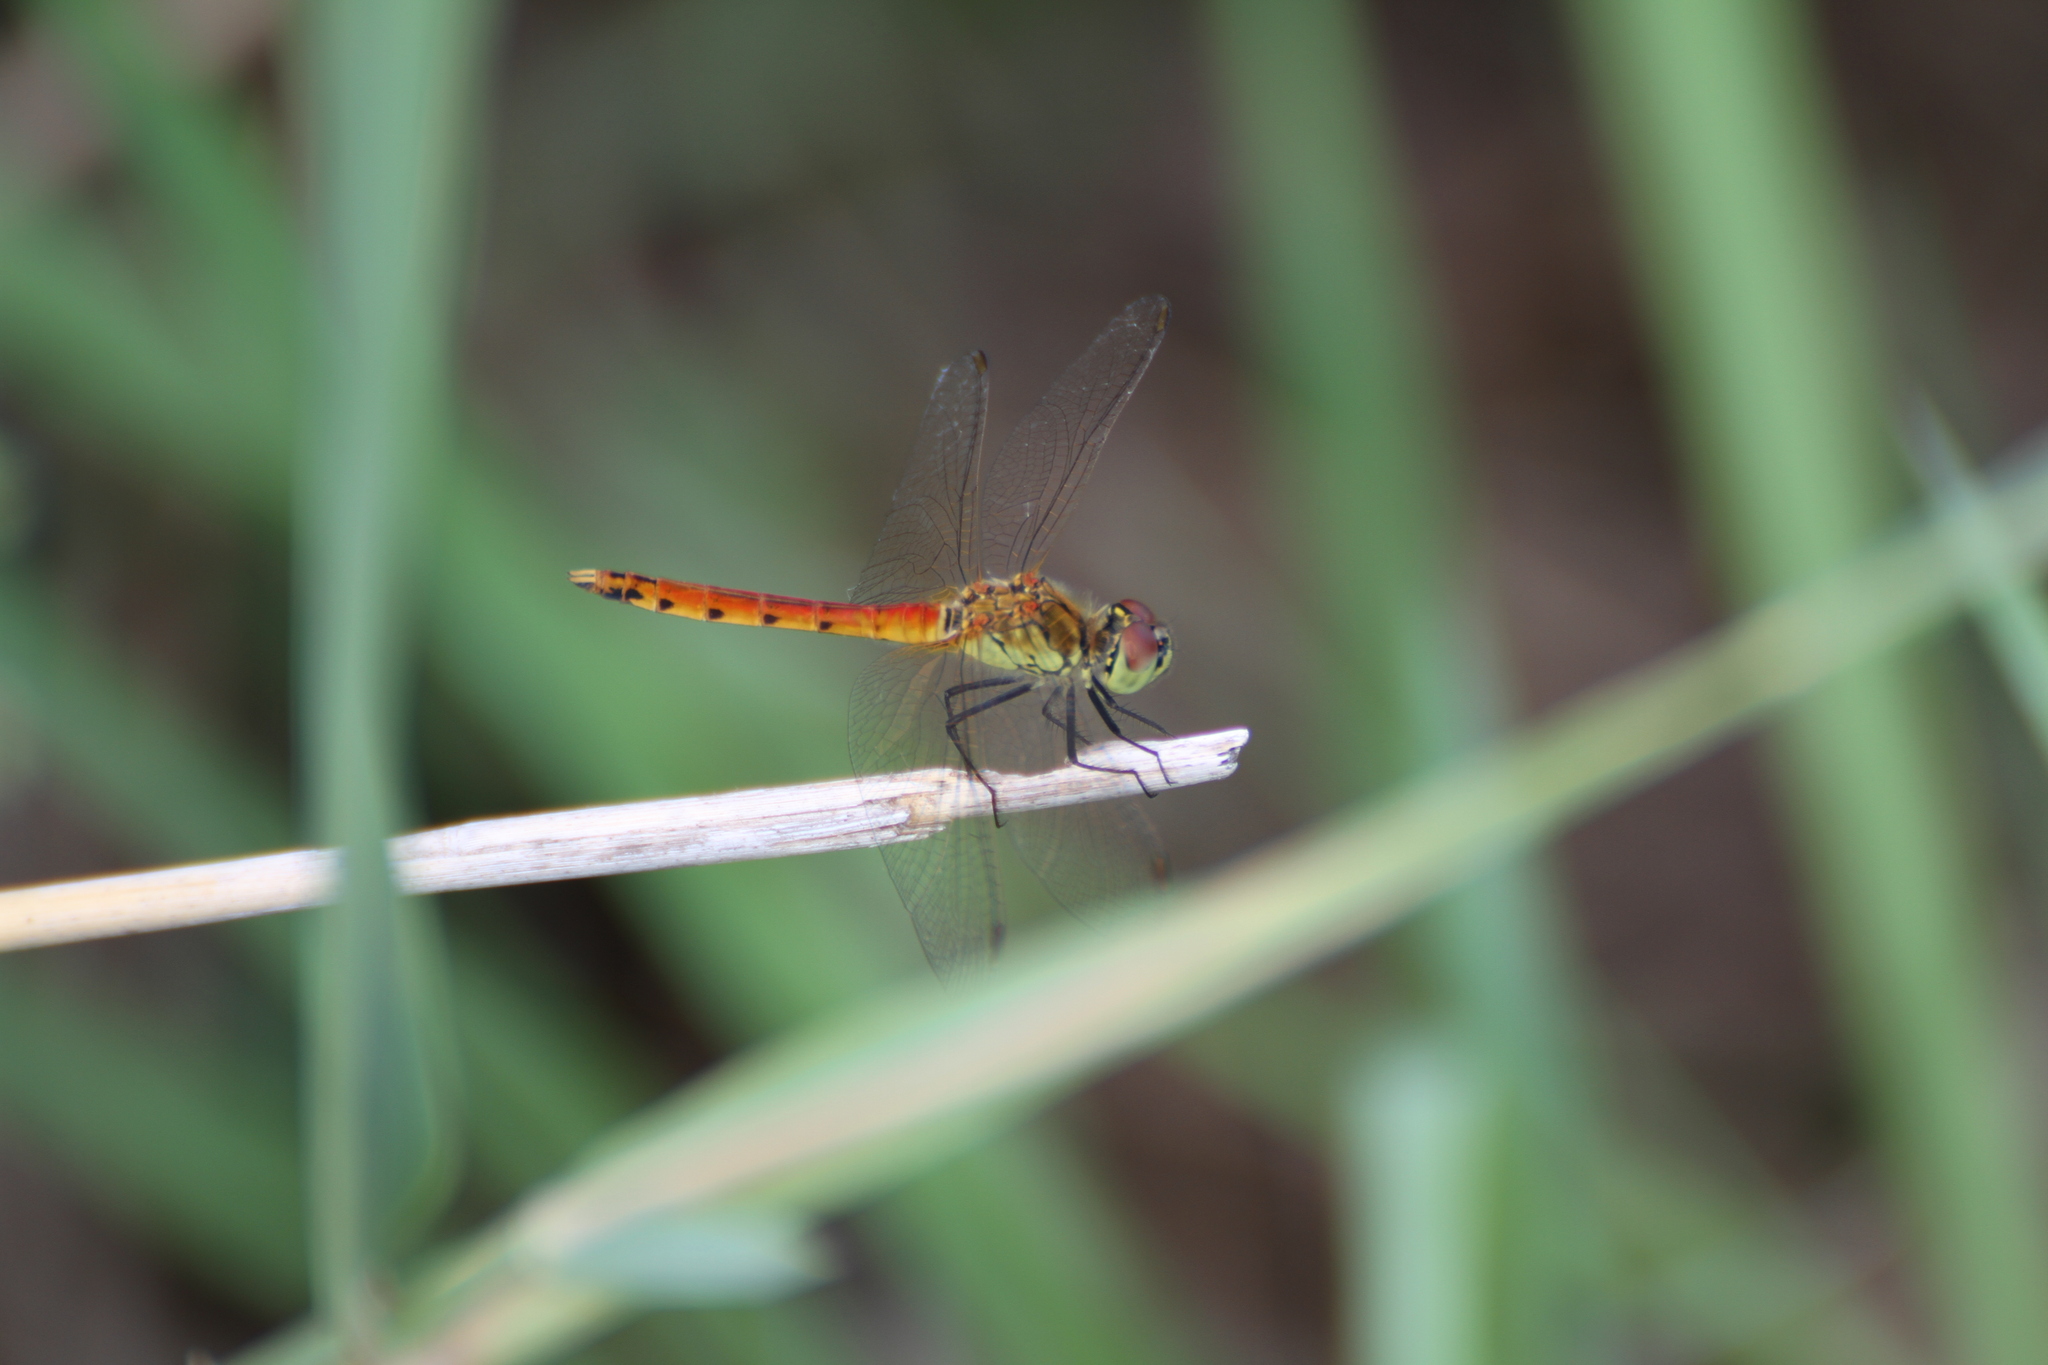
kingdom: Animalia
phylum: Arthropoda
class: Insecta
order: Odonata
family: Libellulidae
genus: Sympetrum
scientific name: Sympetrum depressiusculum
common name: Spotted darter
